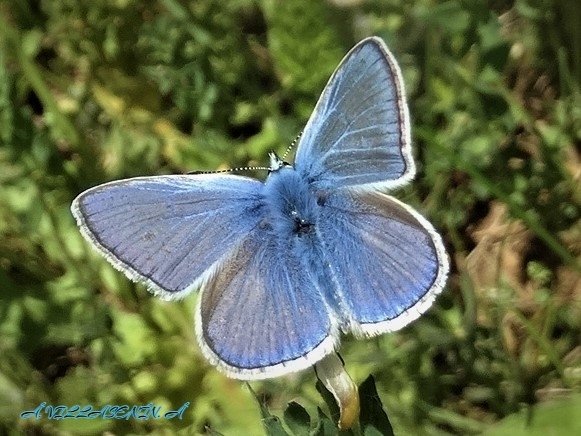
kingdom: Animalia
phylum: Arthropoda
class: Insecta
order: Lepidoptera
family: Lycaenidae
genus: Polyommatus
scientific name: Polyommatus icarus
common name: Common blue
